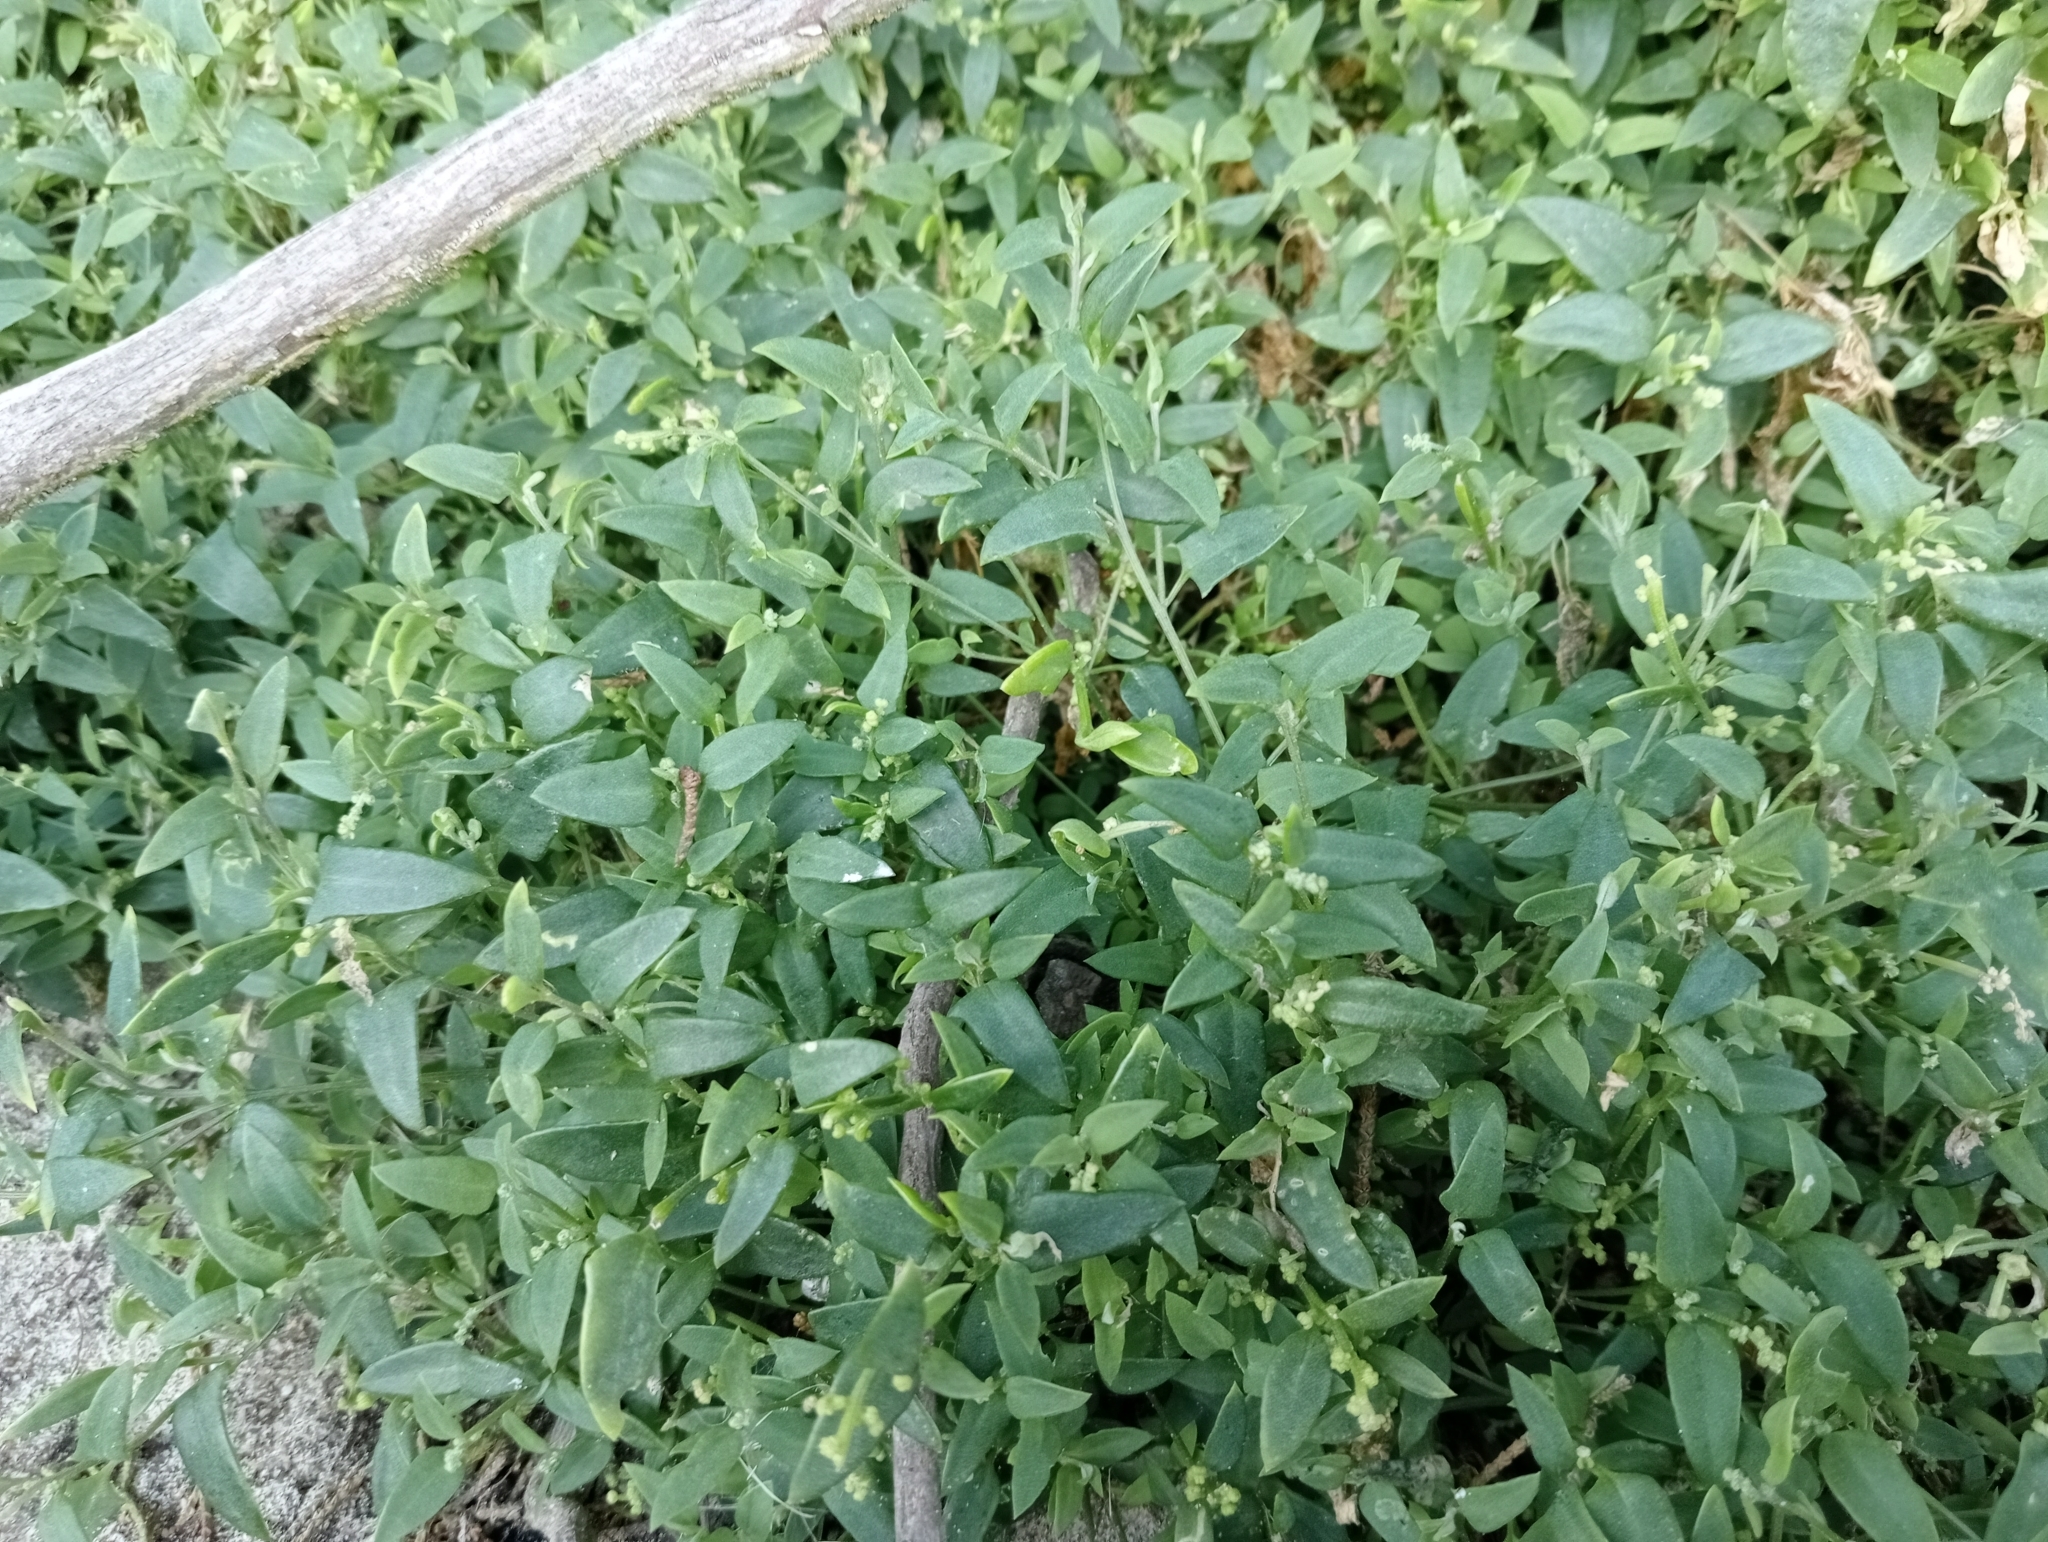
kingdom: Plantae
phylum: Tracheophyta
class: Magnoliopsida
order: Caryophyllales
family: Amaranthaceae
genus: Chenopodium
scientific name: Chenopodium nutans
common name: Climbing-saltbush
